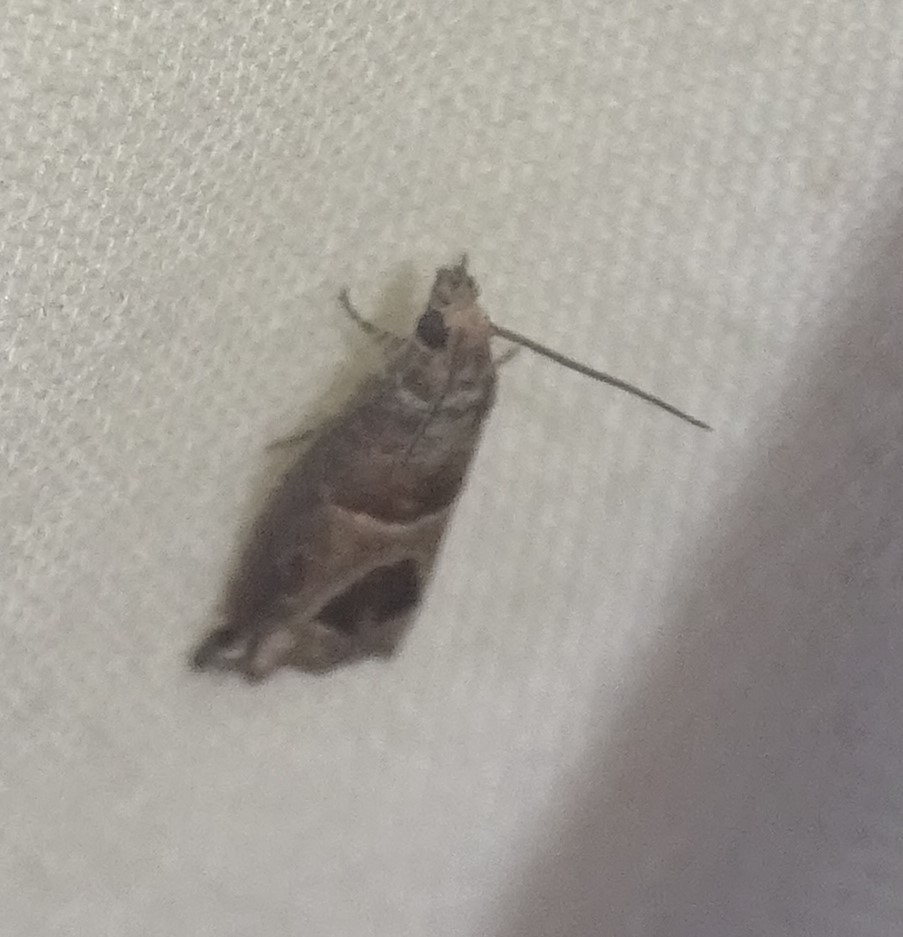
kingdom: Animalia
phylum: Arthropoda
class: Insecta
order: Lepidoptera
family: Tortricidae
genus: Sonia
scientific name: Sonia constrictana
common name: Constricted sonia moth
